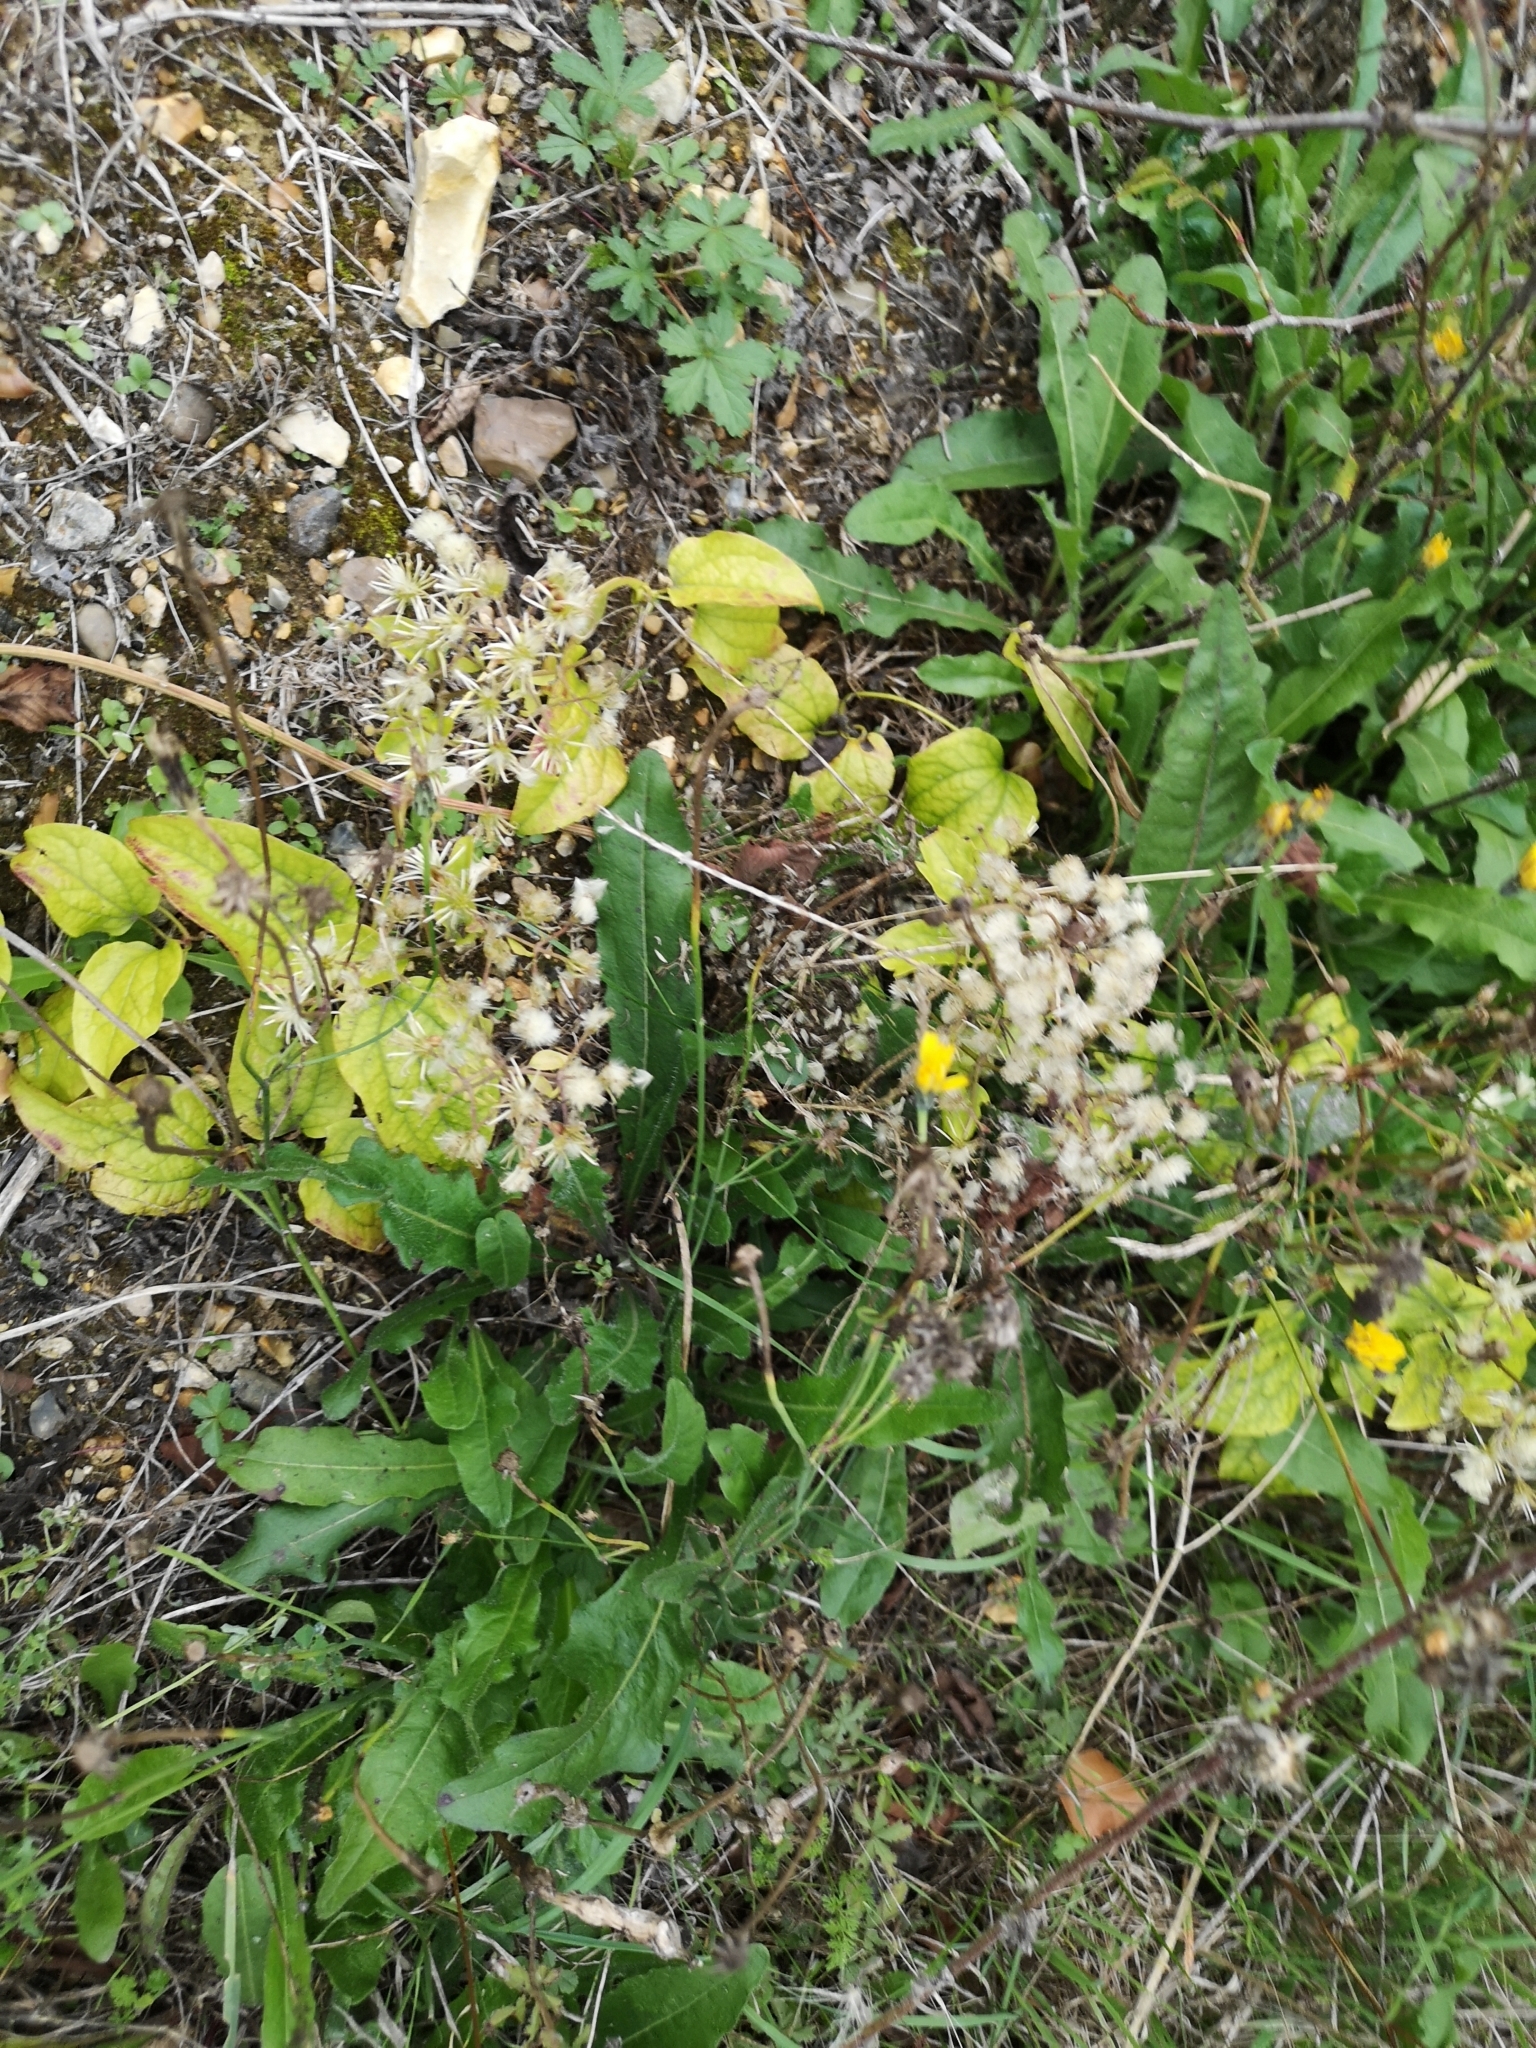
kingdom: Plantae
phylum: Tracheophyta
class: Magnoliopsida
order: Ranunculales
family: Ranunculaceae
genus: Clematis
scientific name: Clematis vitalba
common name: Evergreen clematis
